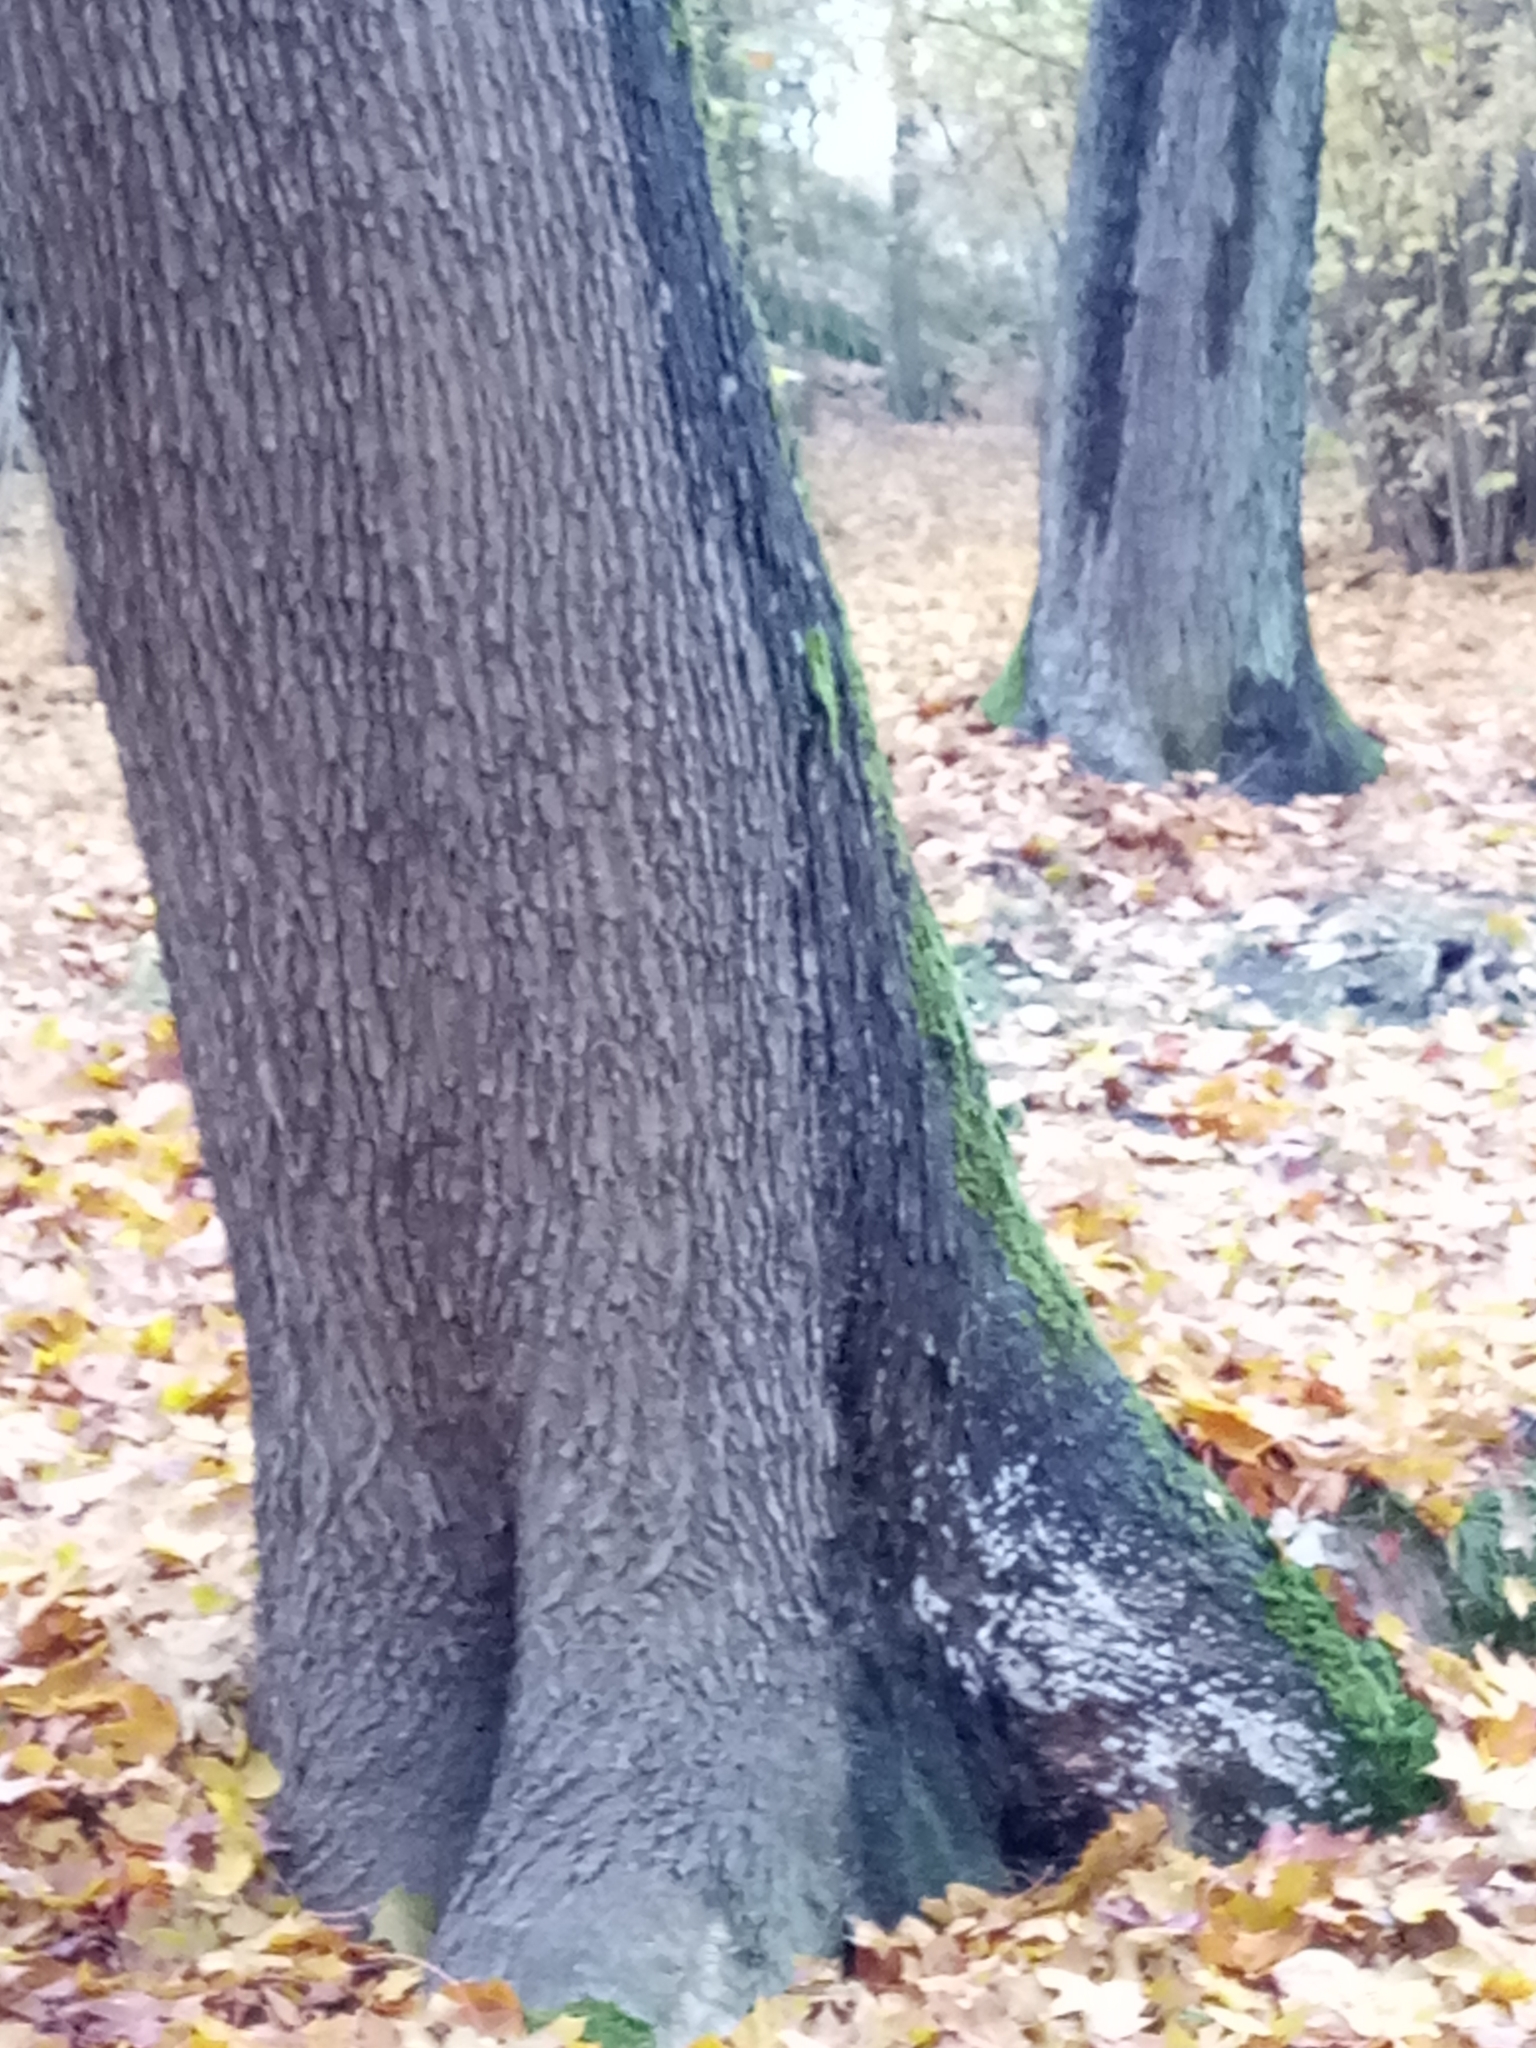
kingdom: Plantae
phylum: Tracheophyta
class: Magnoliopsida
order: Sapindales
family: Sapindaceae
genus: Acer
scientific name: Acer platanoides
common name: Norway maple
